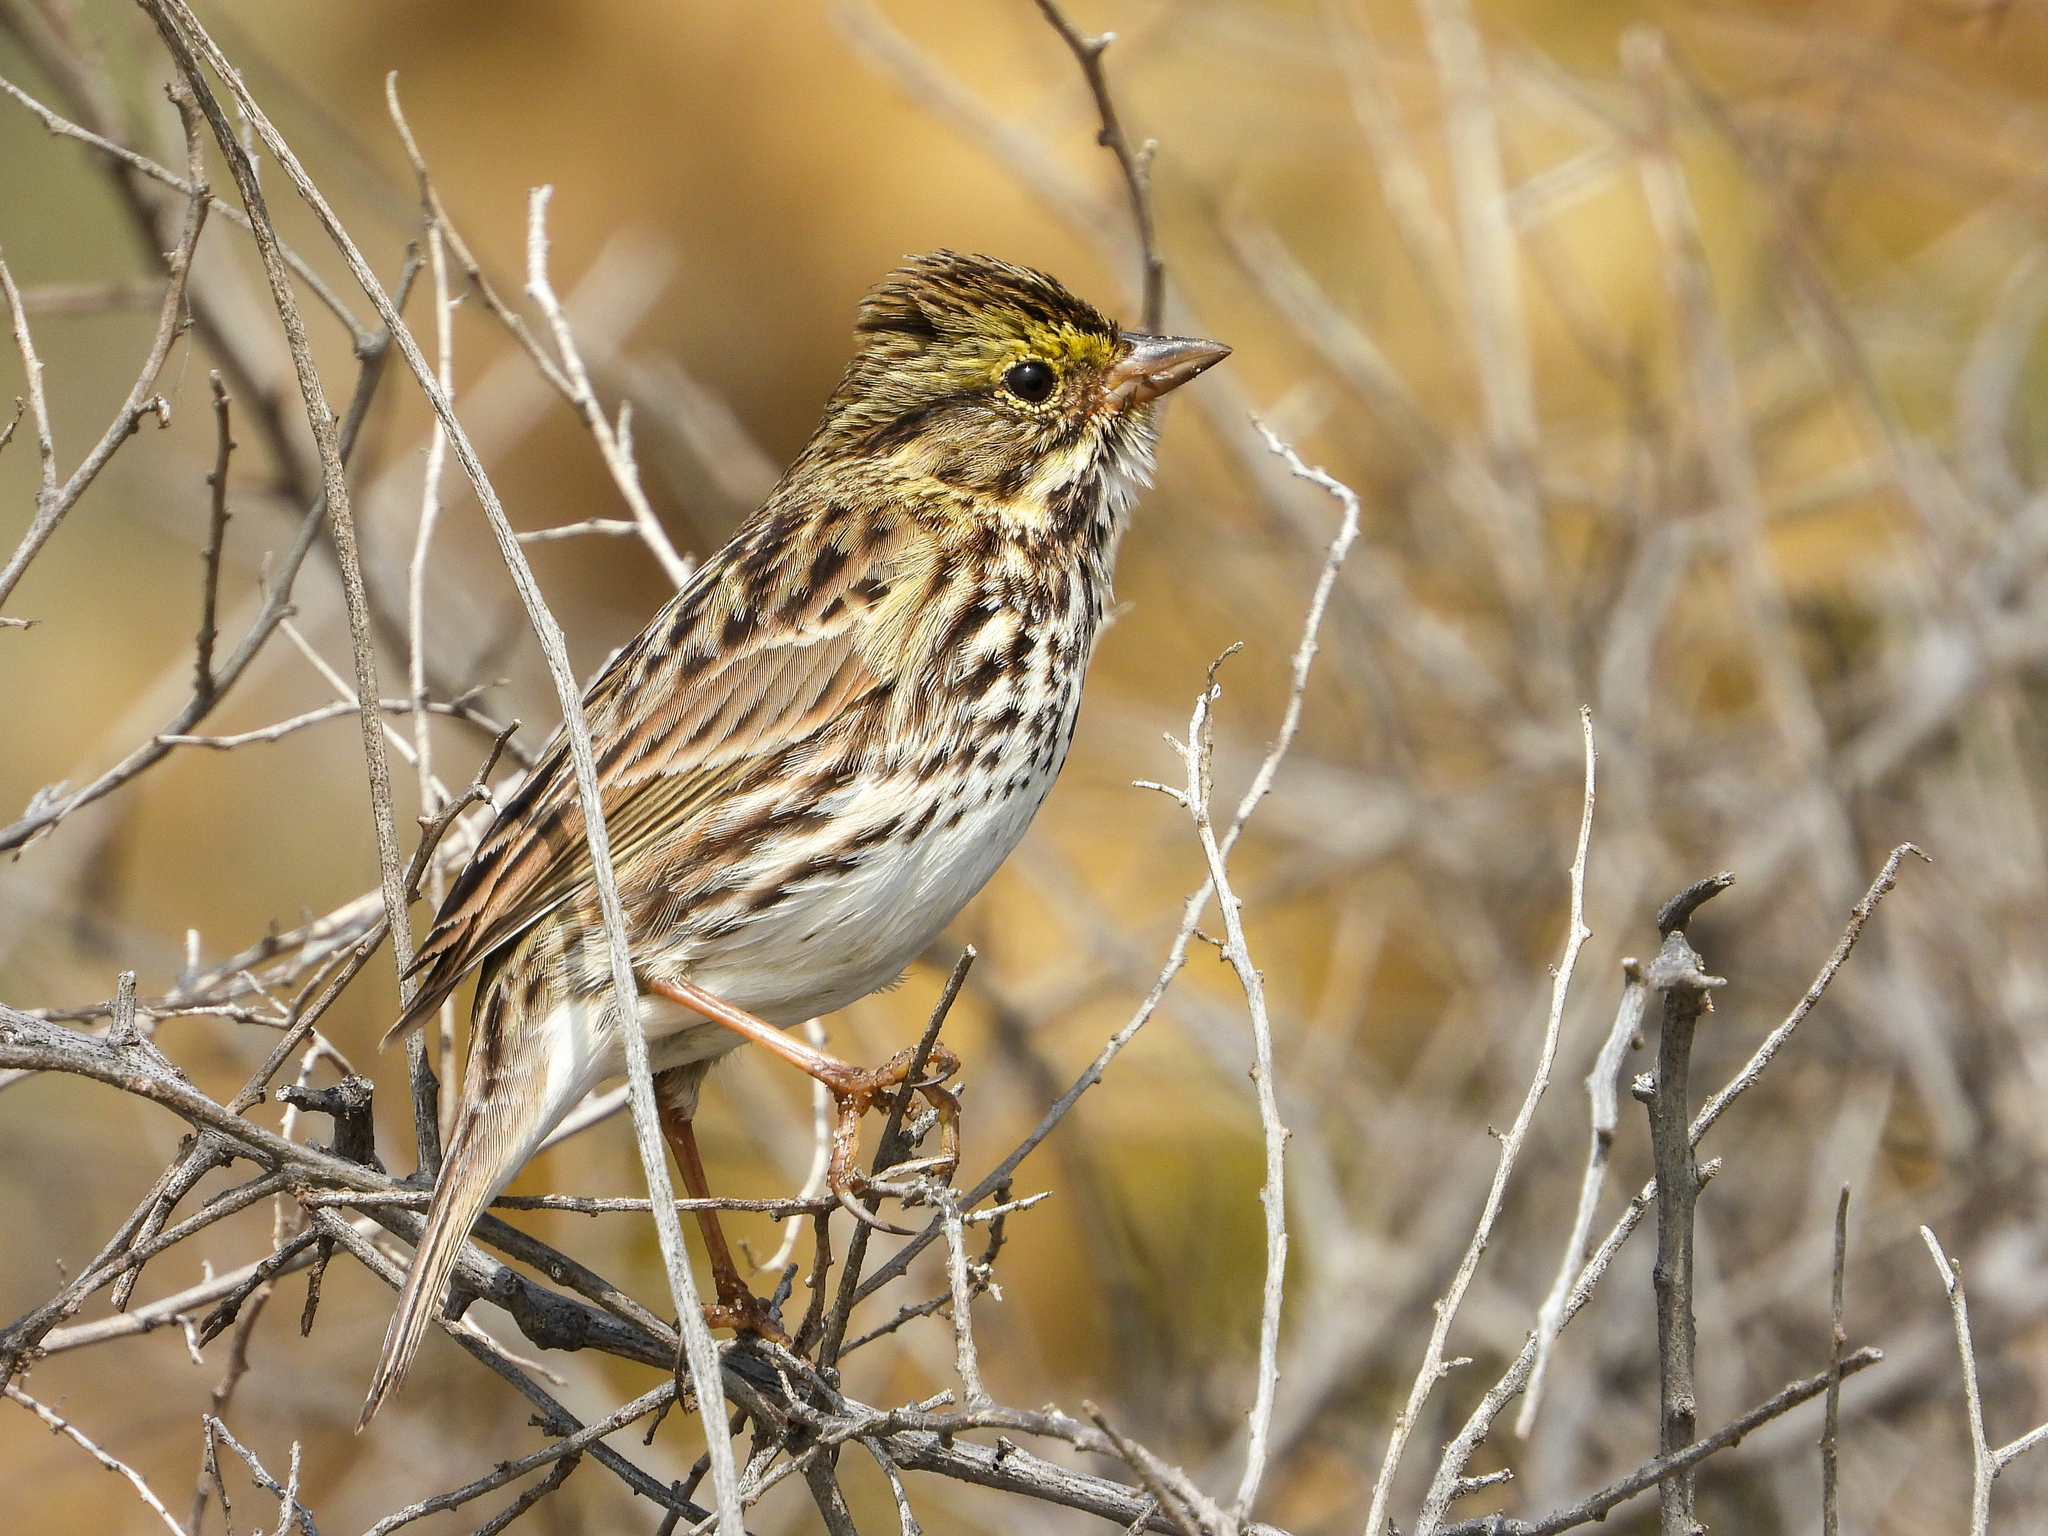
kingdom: Animalia
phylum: Chordata
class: Aves
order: Passeriformes
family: Passerellidae
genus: Passerculus
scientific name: Passerculus sandwichensis
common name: Savannah sparrow
